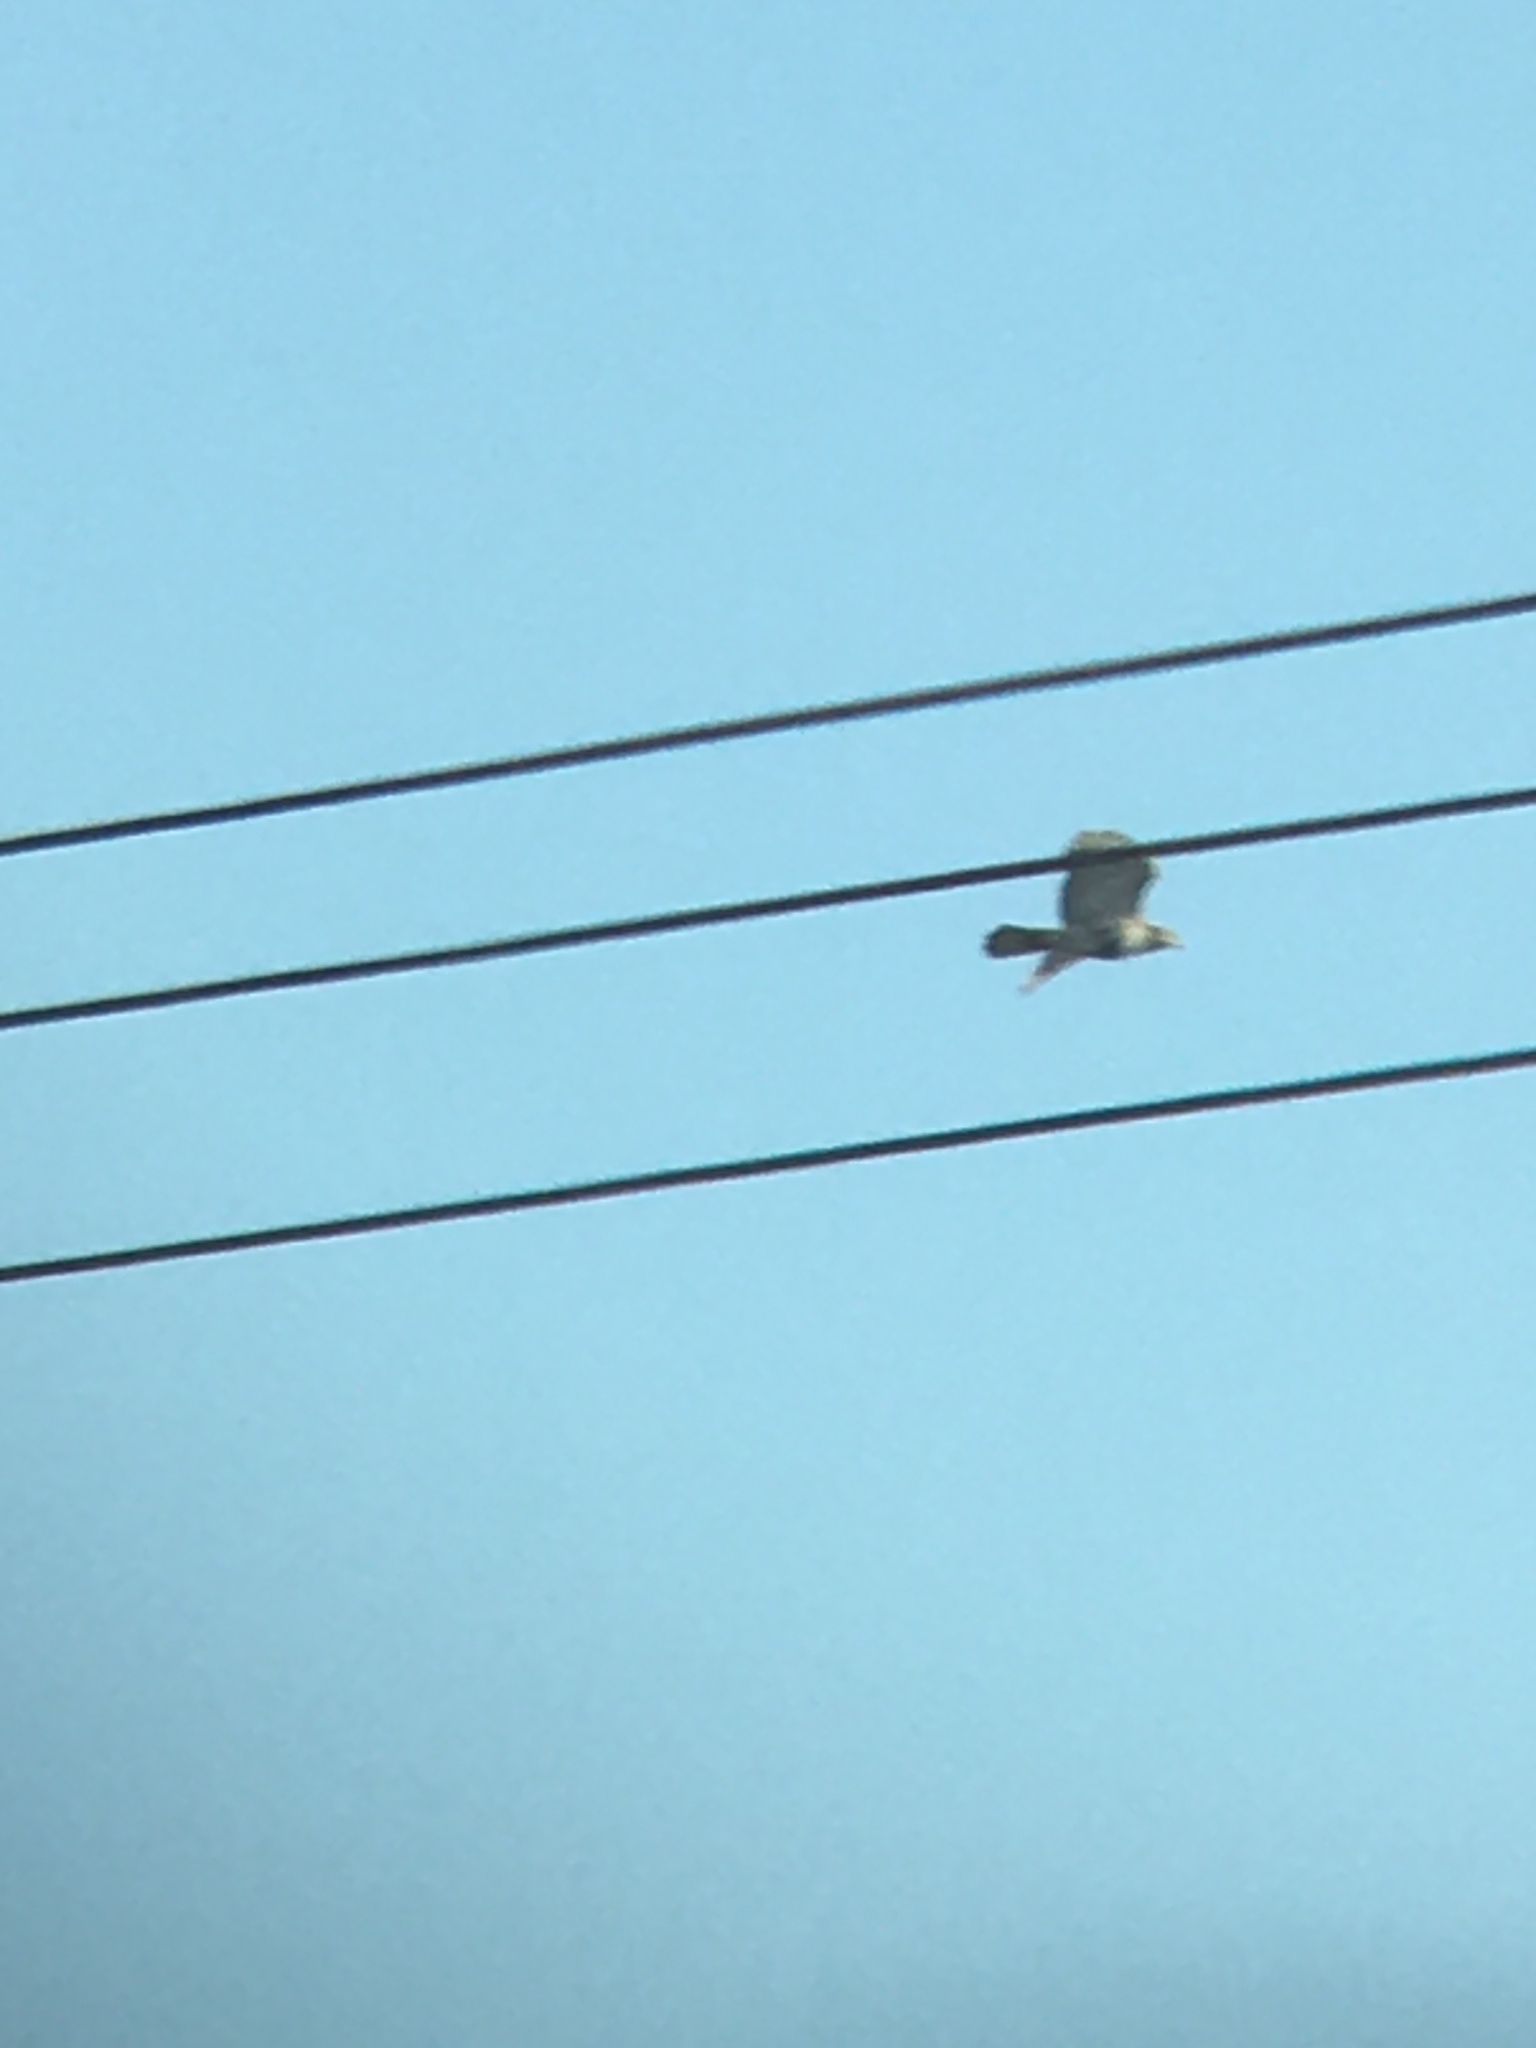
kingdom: Animalia
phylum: Chordata
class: Aves
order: Accipitriformes
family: Accipitridae
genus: Buteo
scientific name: Buteo jamaicensis
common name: Red-tailed hawk
